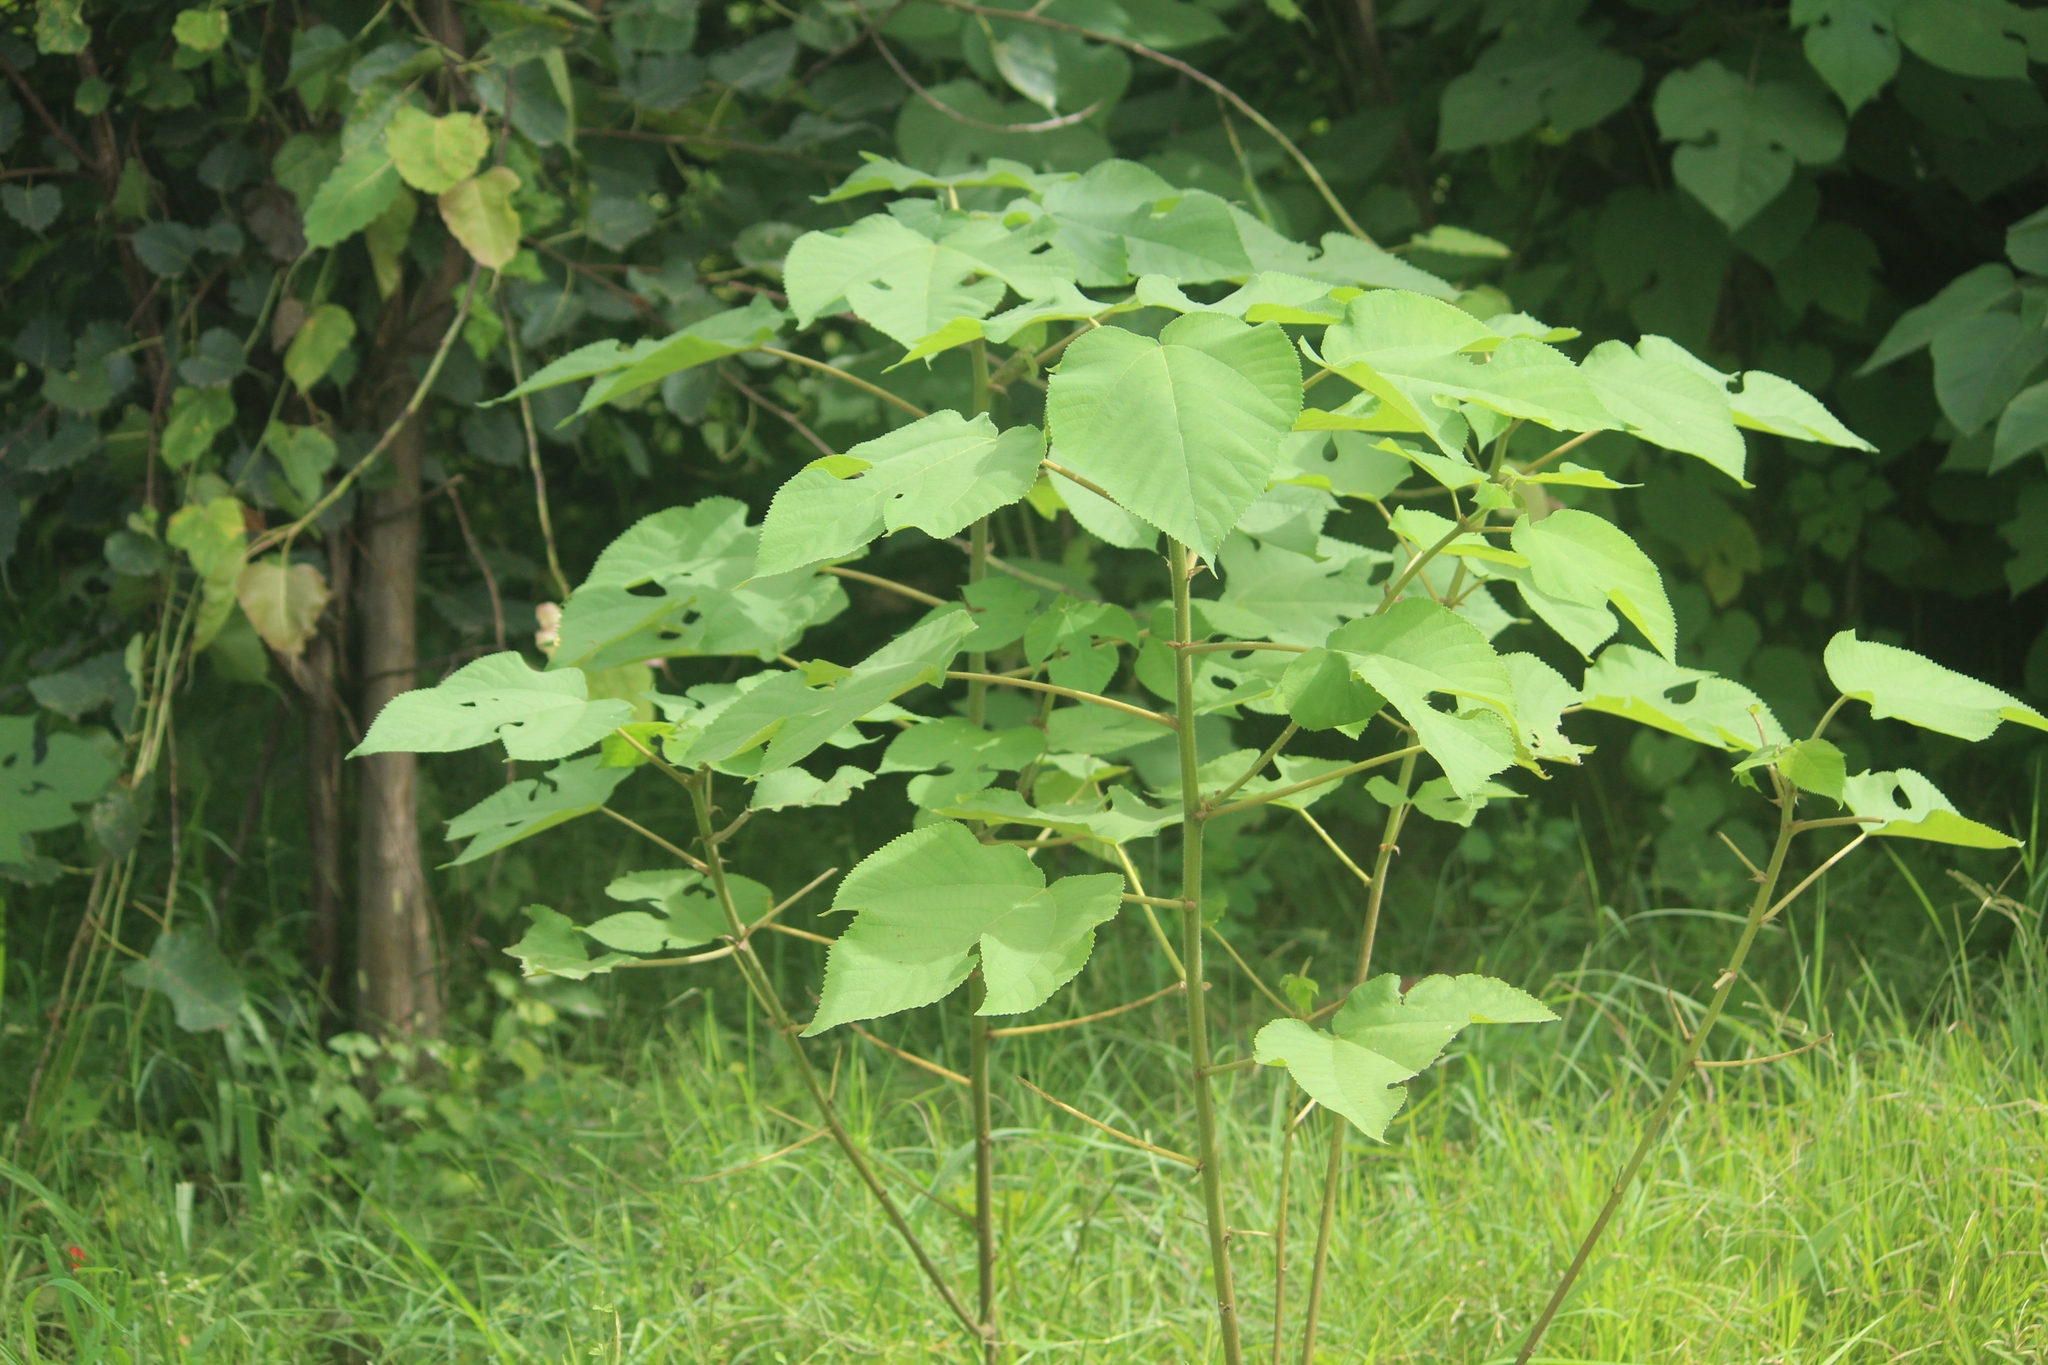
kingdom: Plantae
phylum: Tracheophyta
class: Magnoliopsida
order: Rosales
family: Moraceae
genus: Broussonetia
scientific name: Broussonetia papyrifera
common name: Paper mulberry
